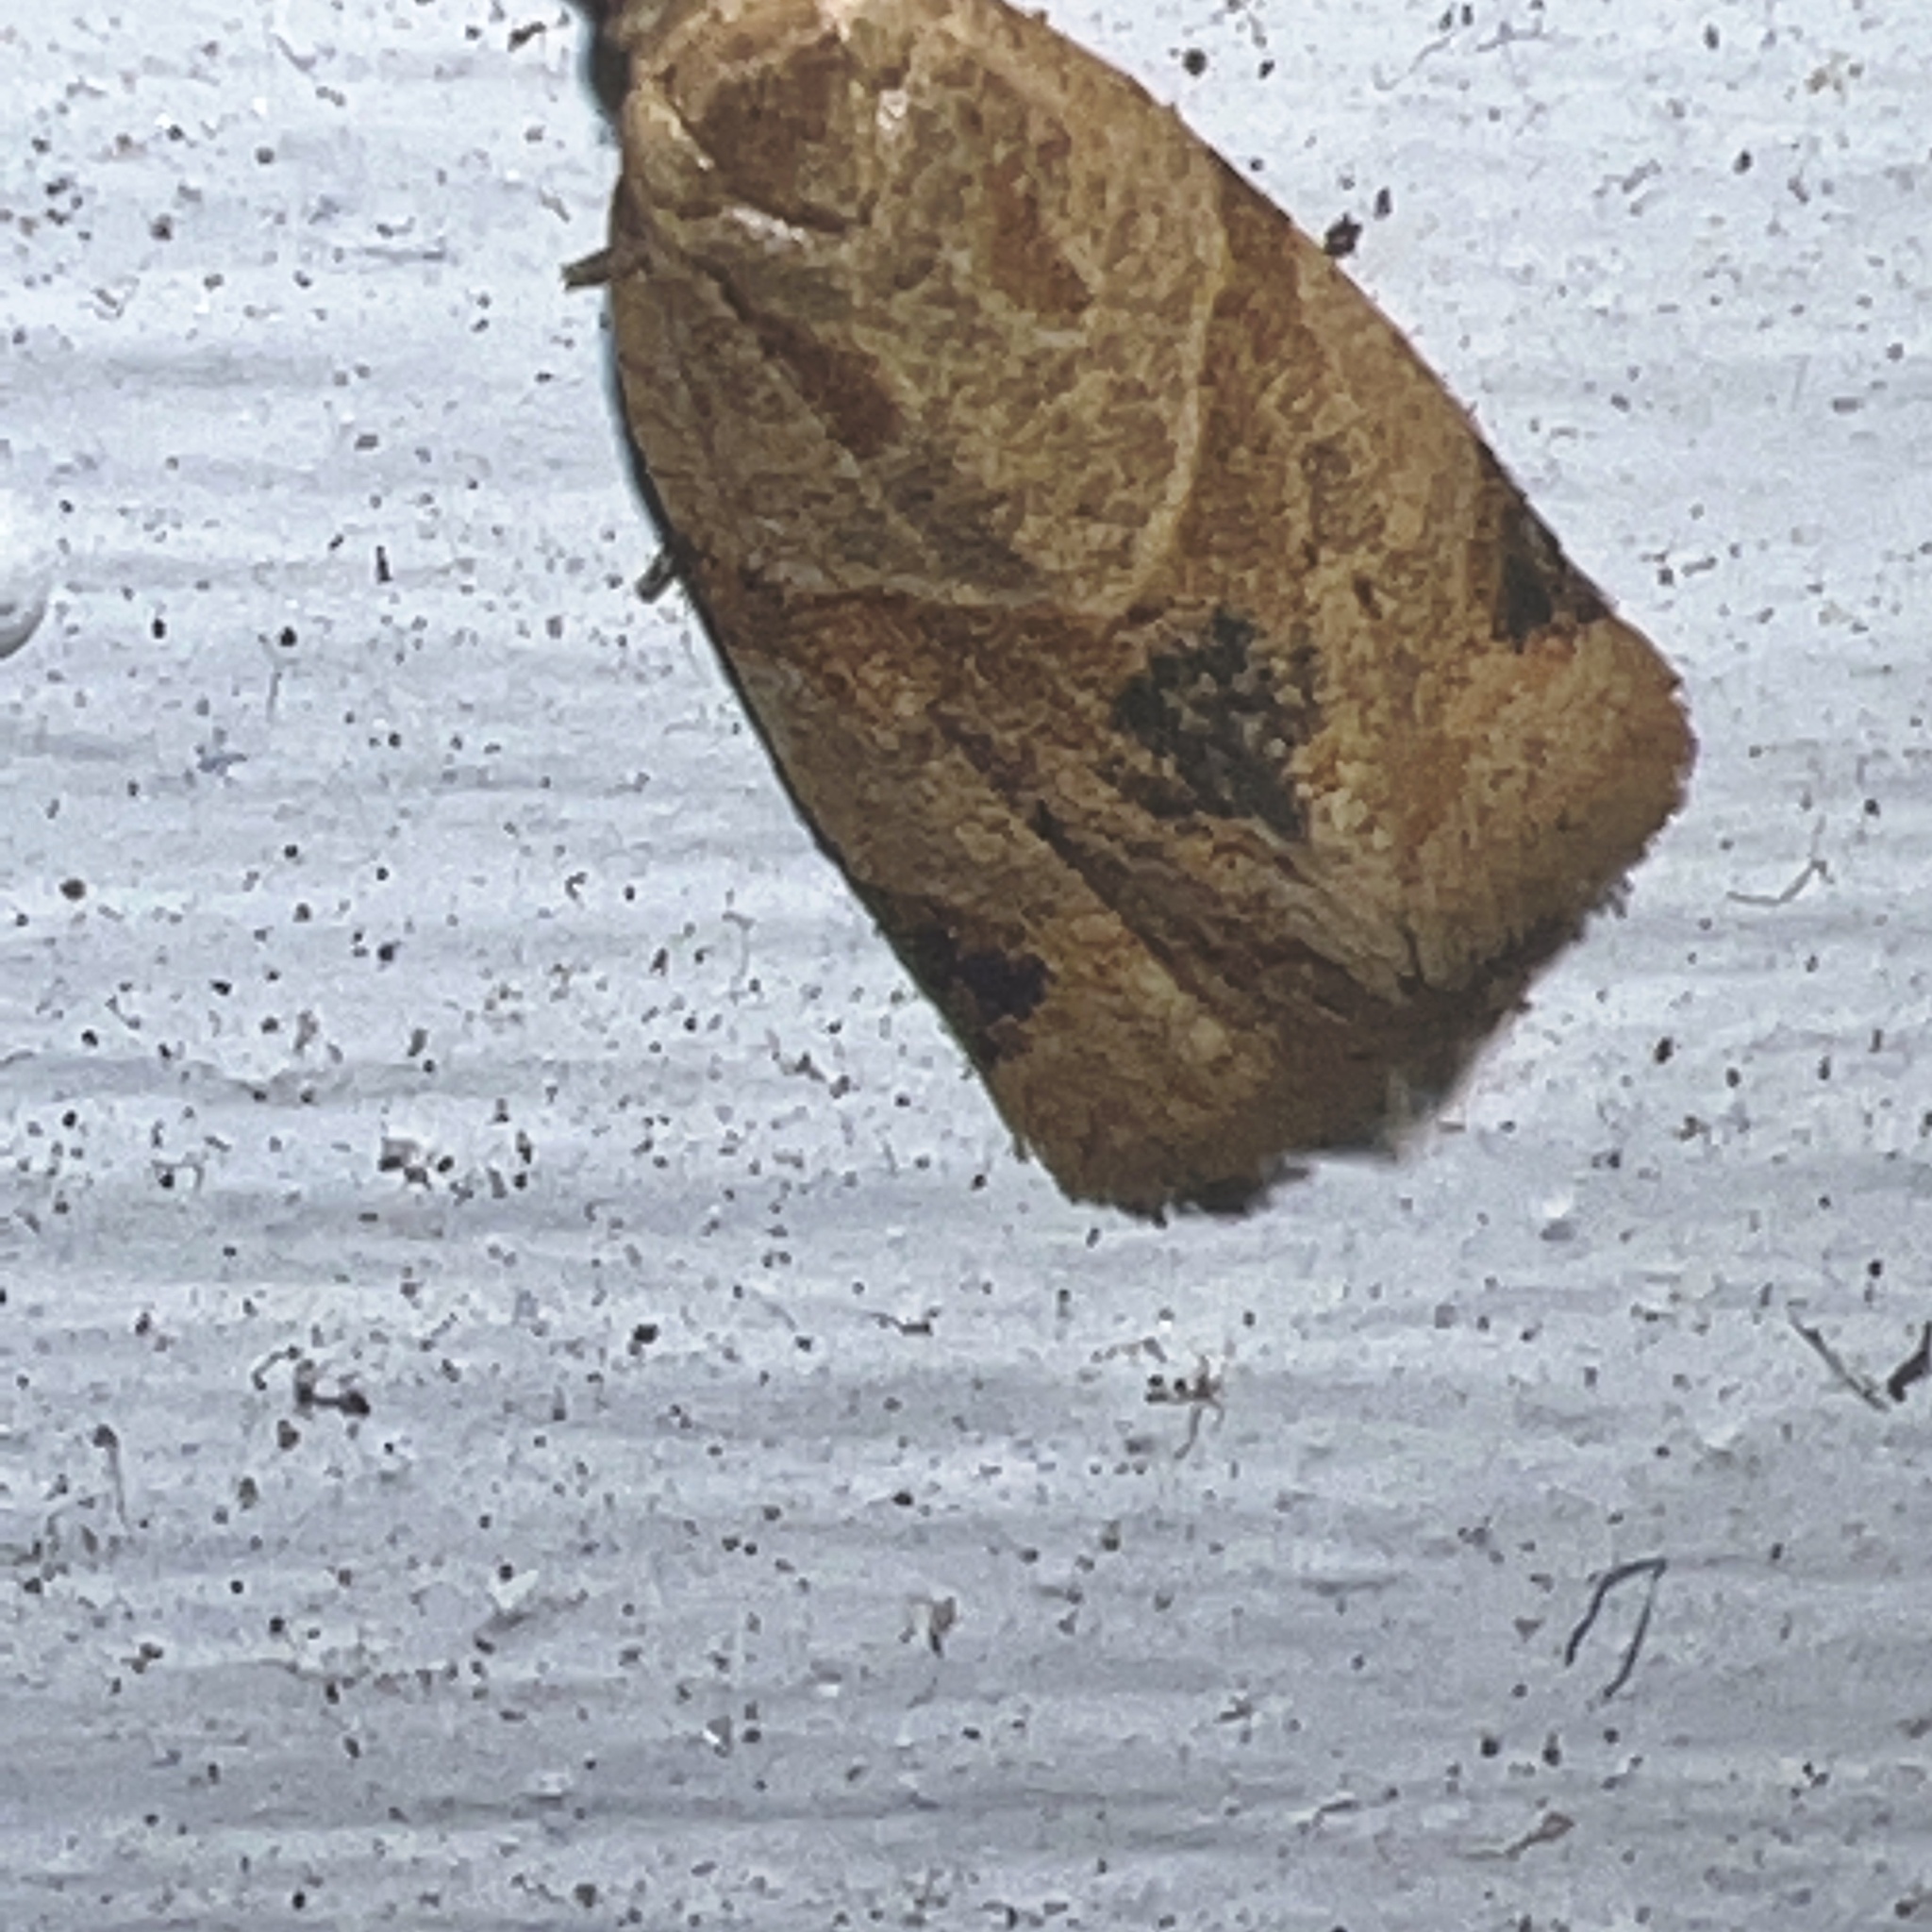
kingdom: Animalia
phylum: Arthropoda
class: Insecta
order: Lepidoptera
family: Tortricidae
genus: Clepsis
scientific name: Clepsis peritana
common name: Garden tortrix
